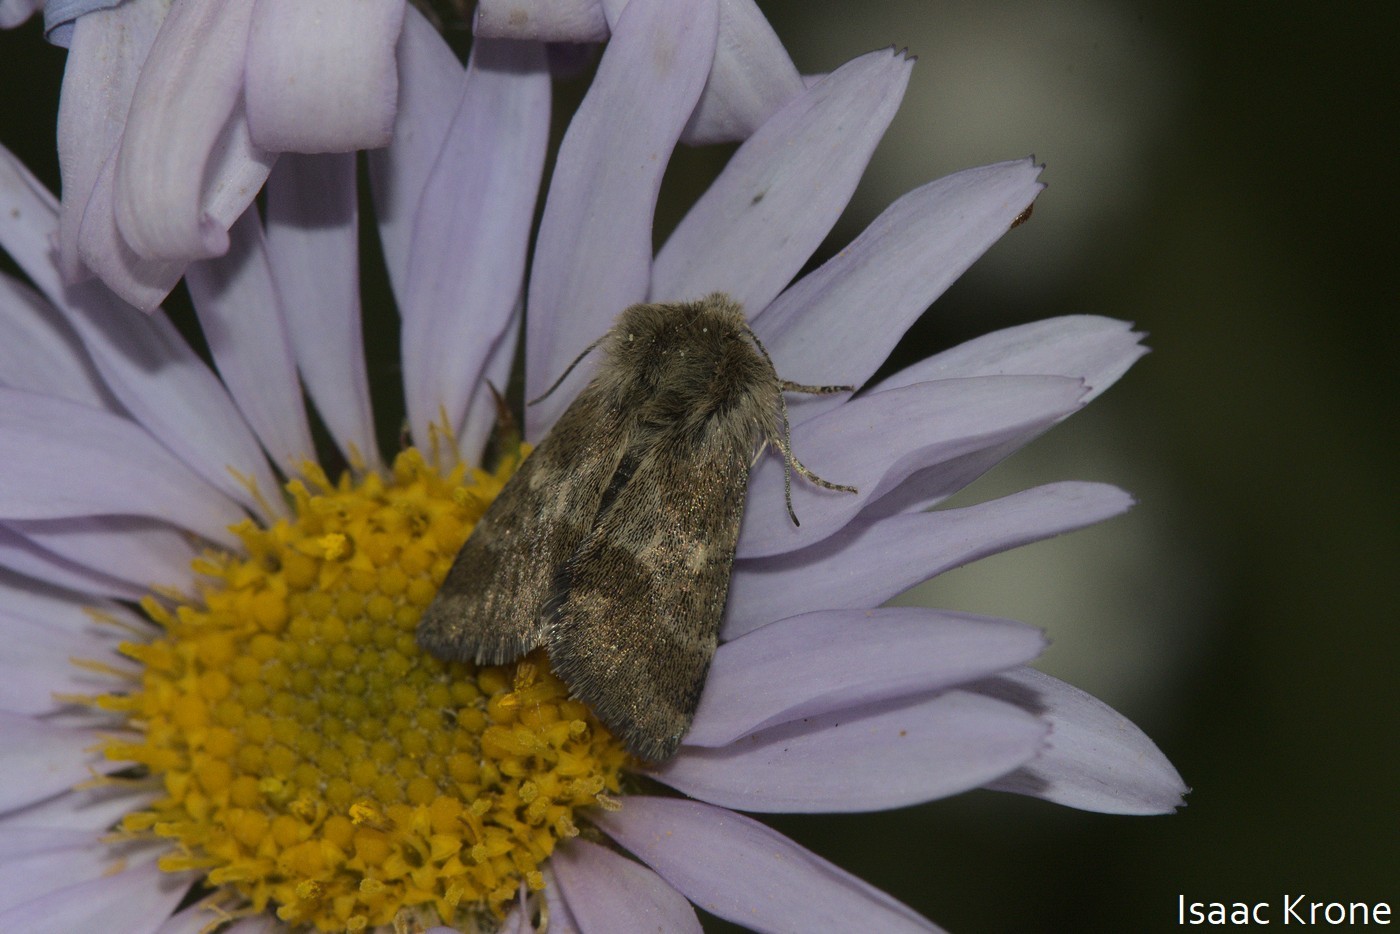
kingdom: Animalia
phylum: Arthropoda
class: Insecta
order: Lepidoptera
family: Noctuidae
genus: Schinia
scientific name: Schinia villosa
